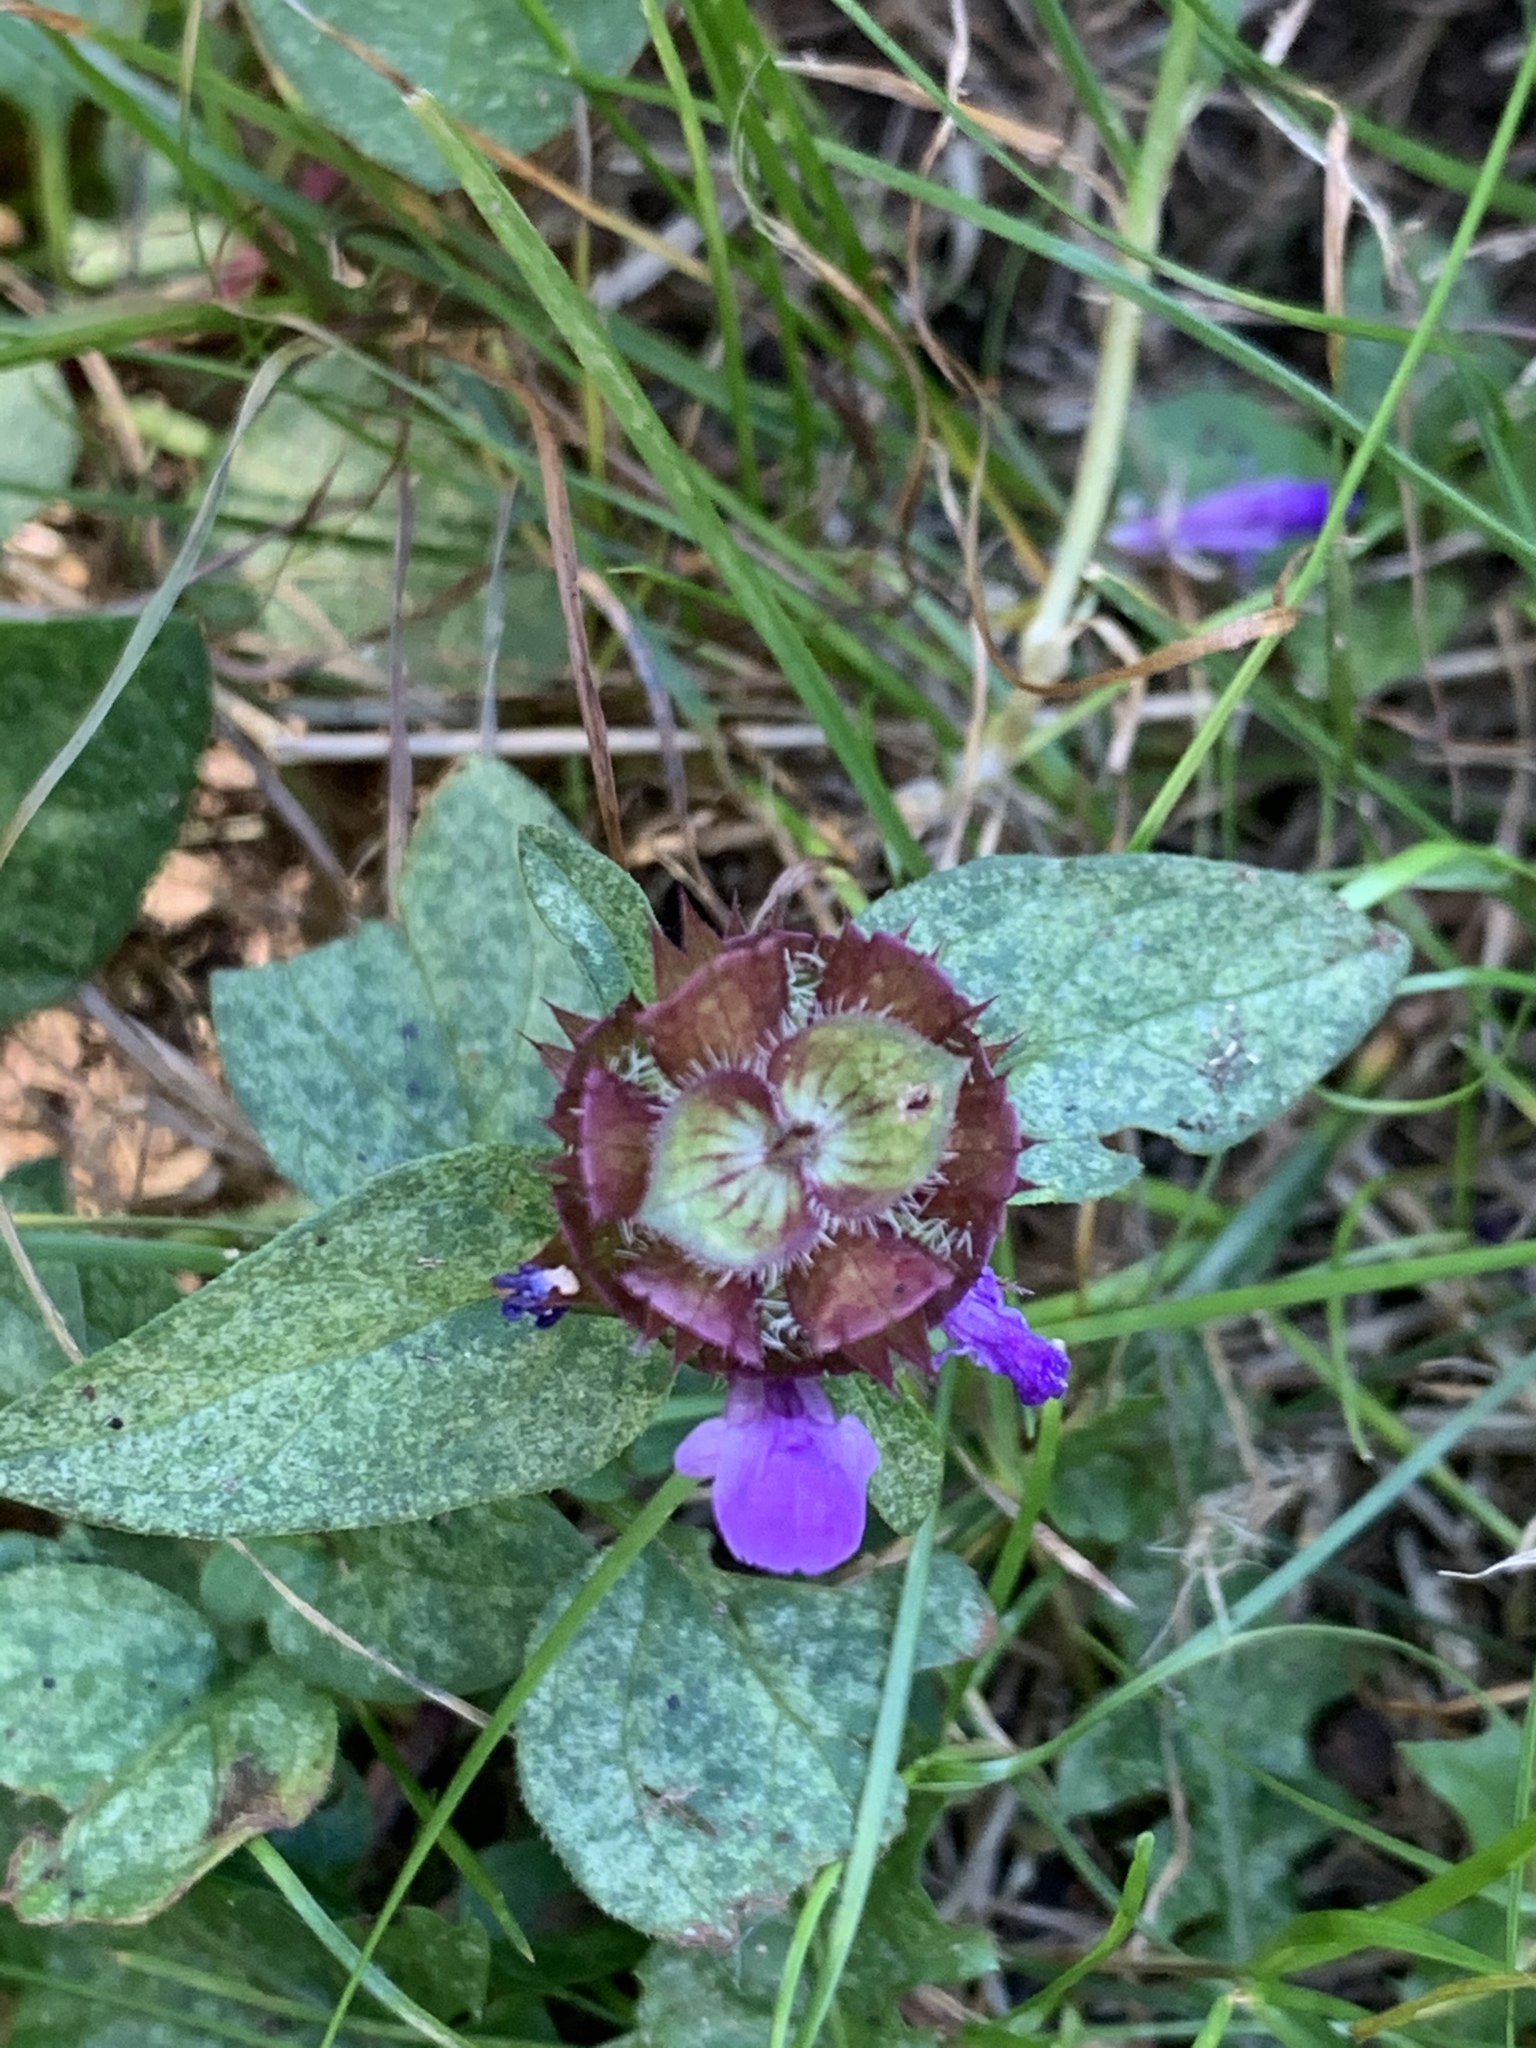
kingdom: Plantae
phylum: Tracheophyta
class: Magnoliopsida
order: Lamiales
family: Lamiaceae
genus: Prunella
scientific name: Prunella vulgaris
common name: Heal-all
